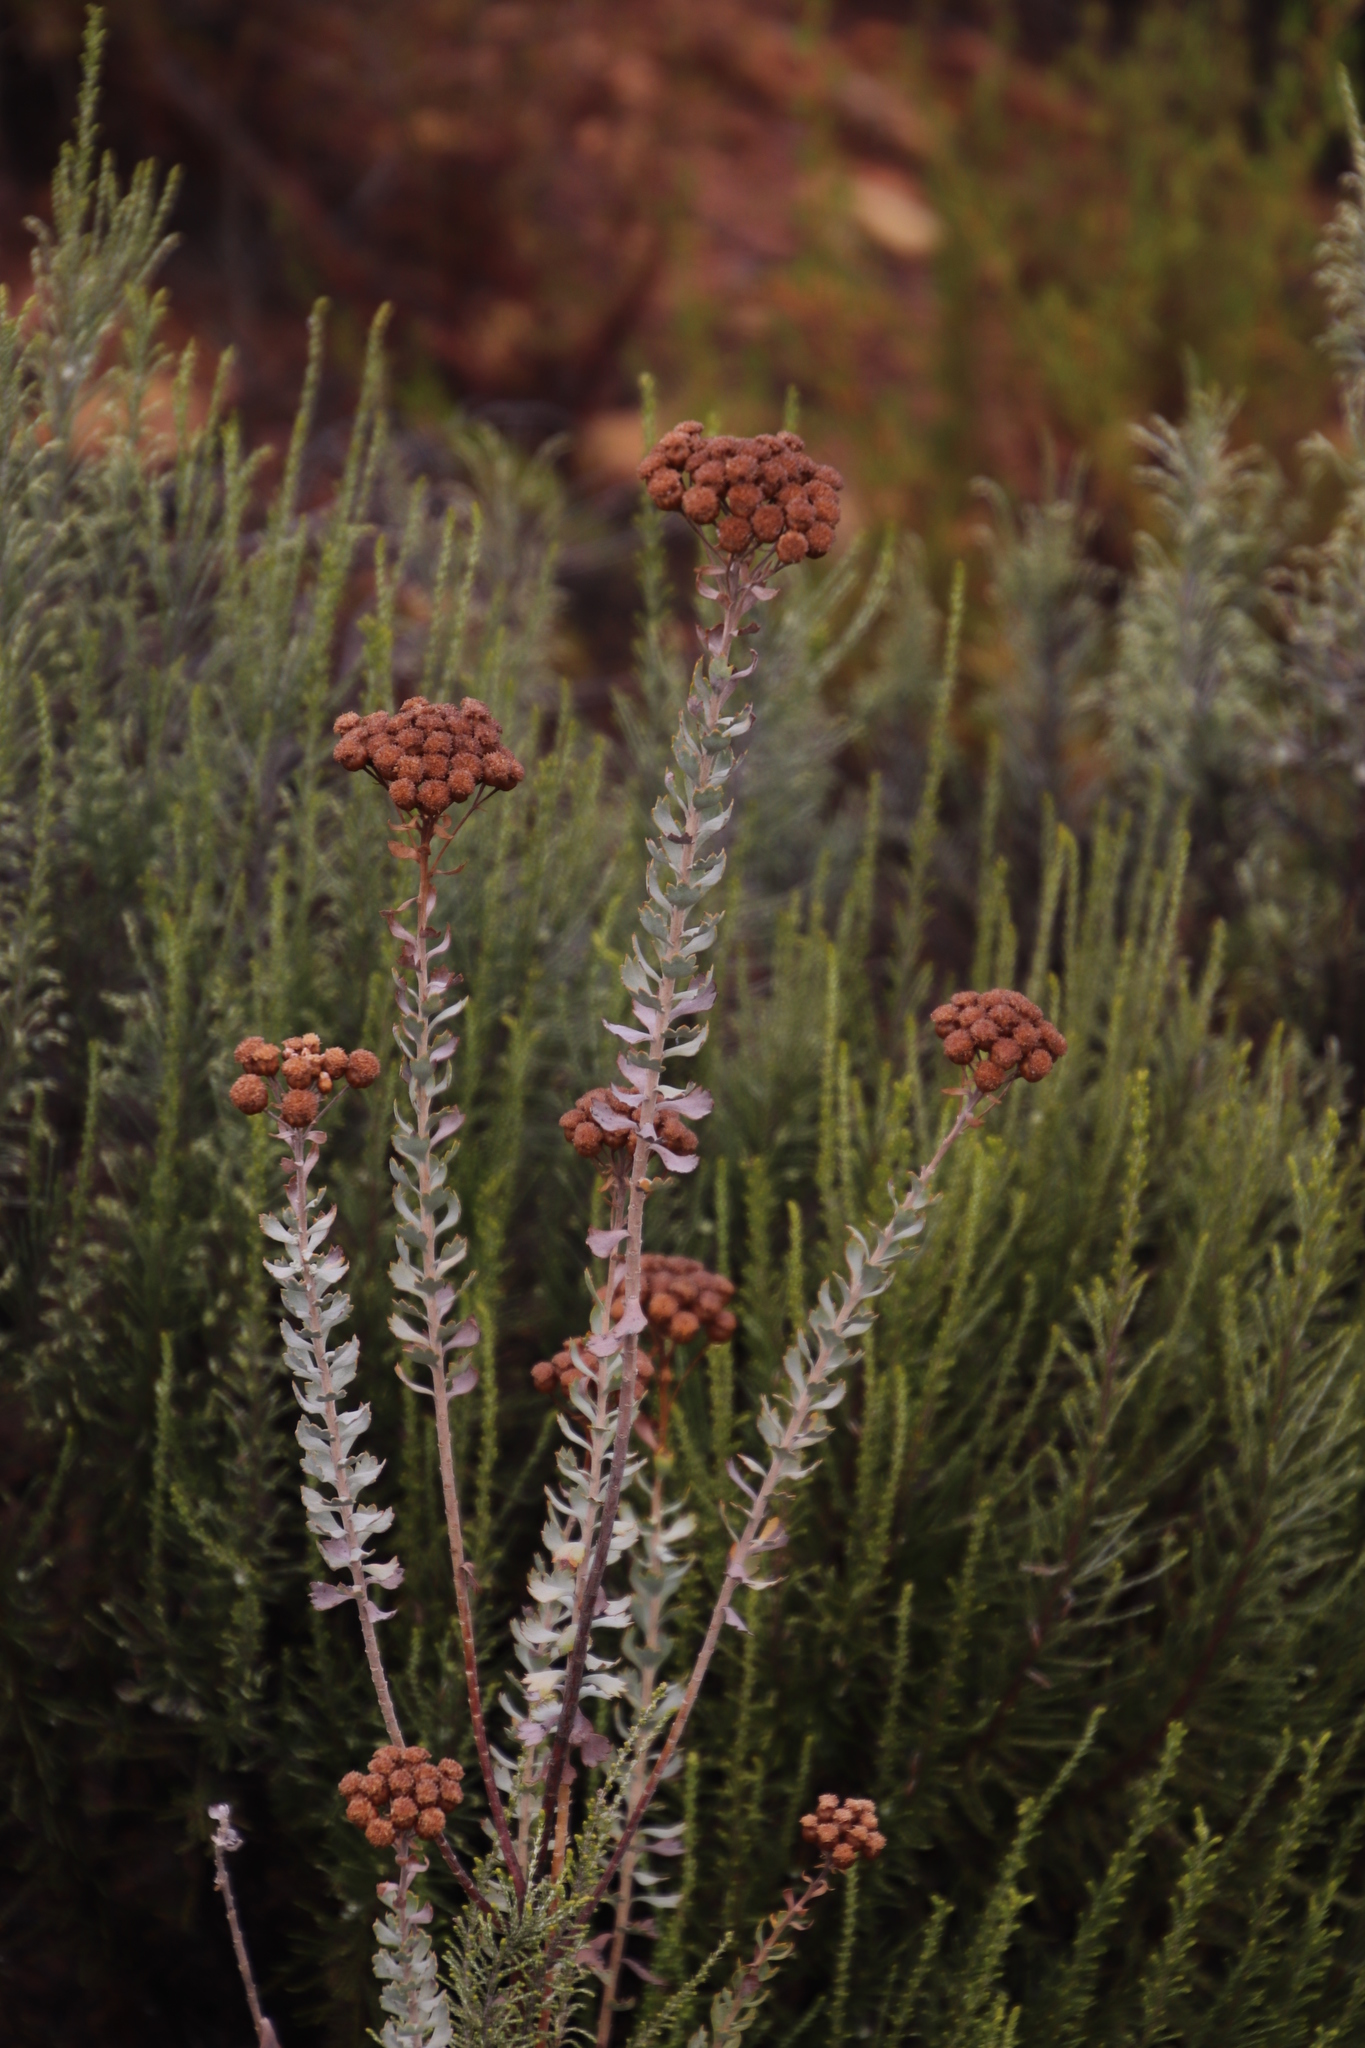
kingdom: Plantae
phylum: Tracheophyta
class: Magnoliopsida
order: Asterales
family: Asteraceae
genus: Athanasia
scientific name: Athanasia trifurcata
